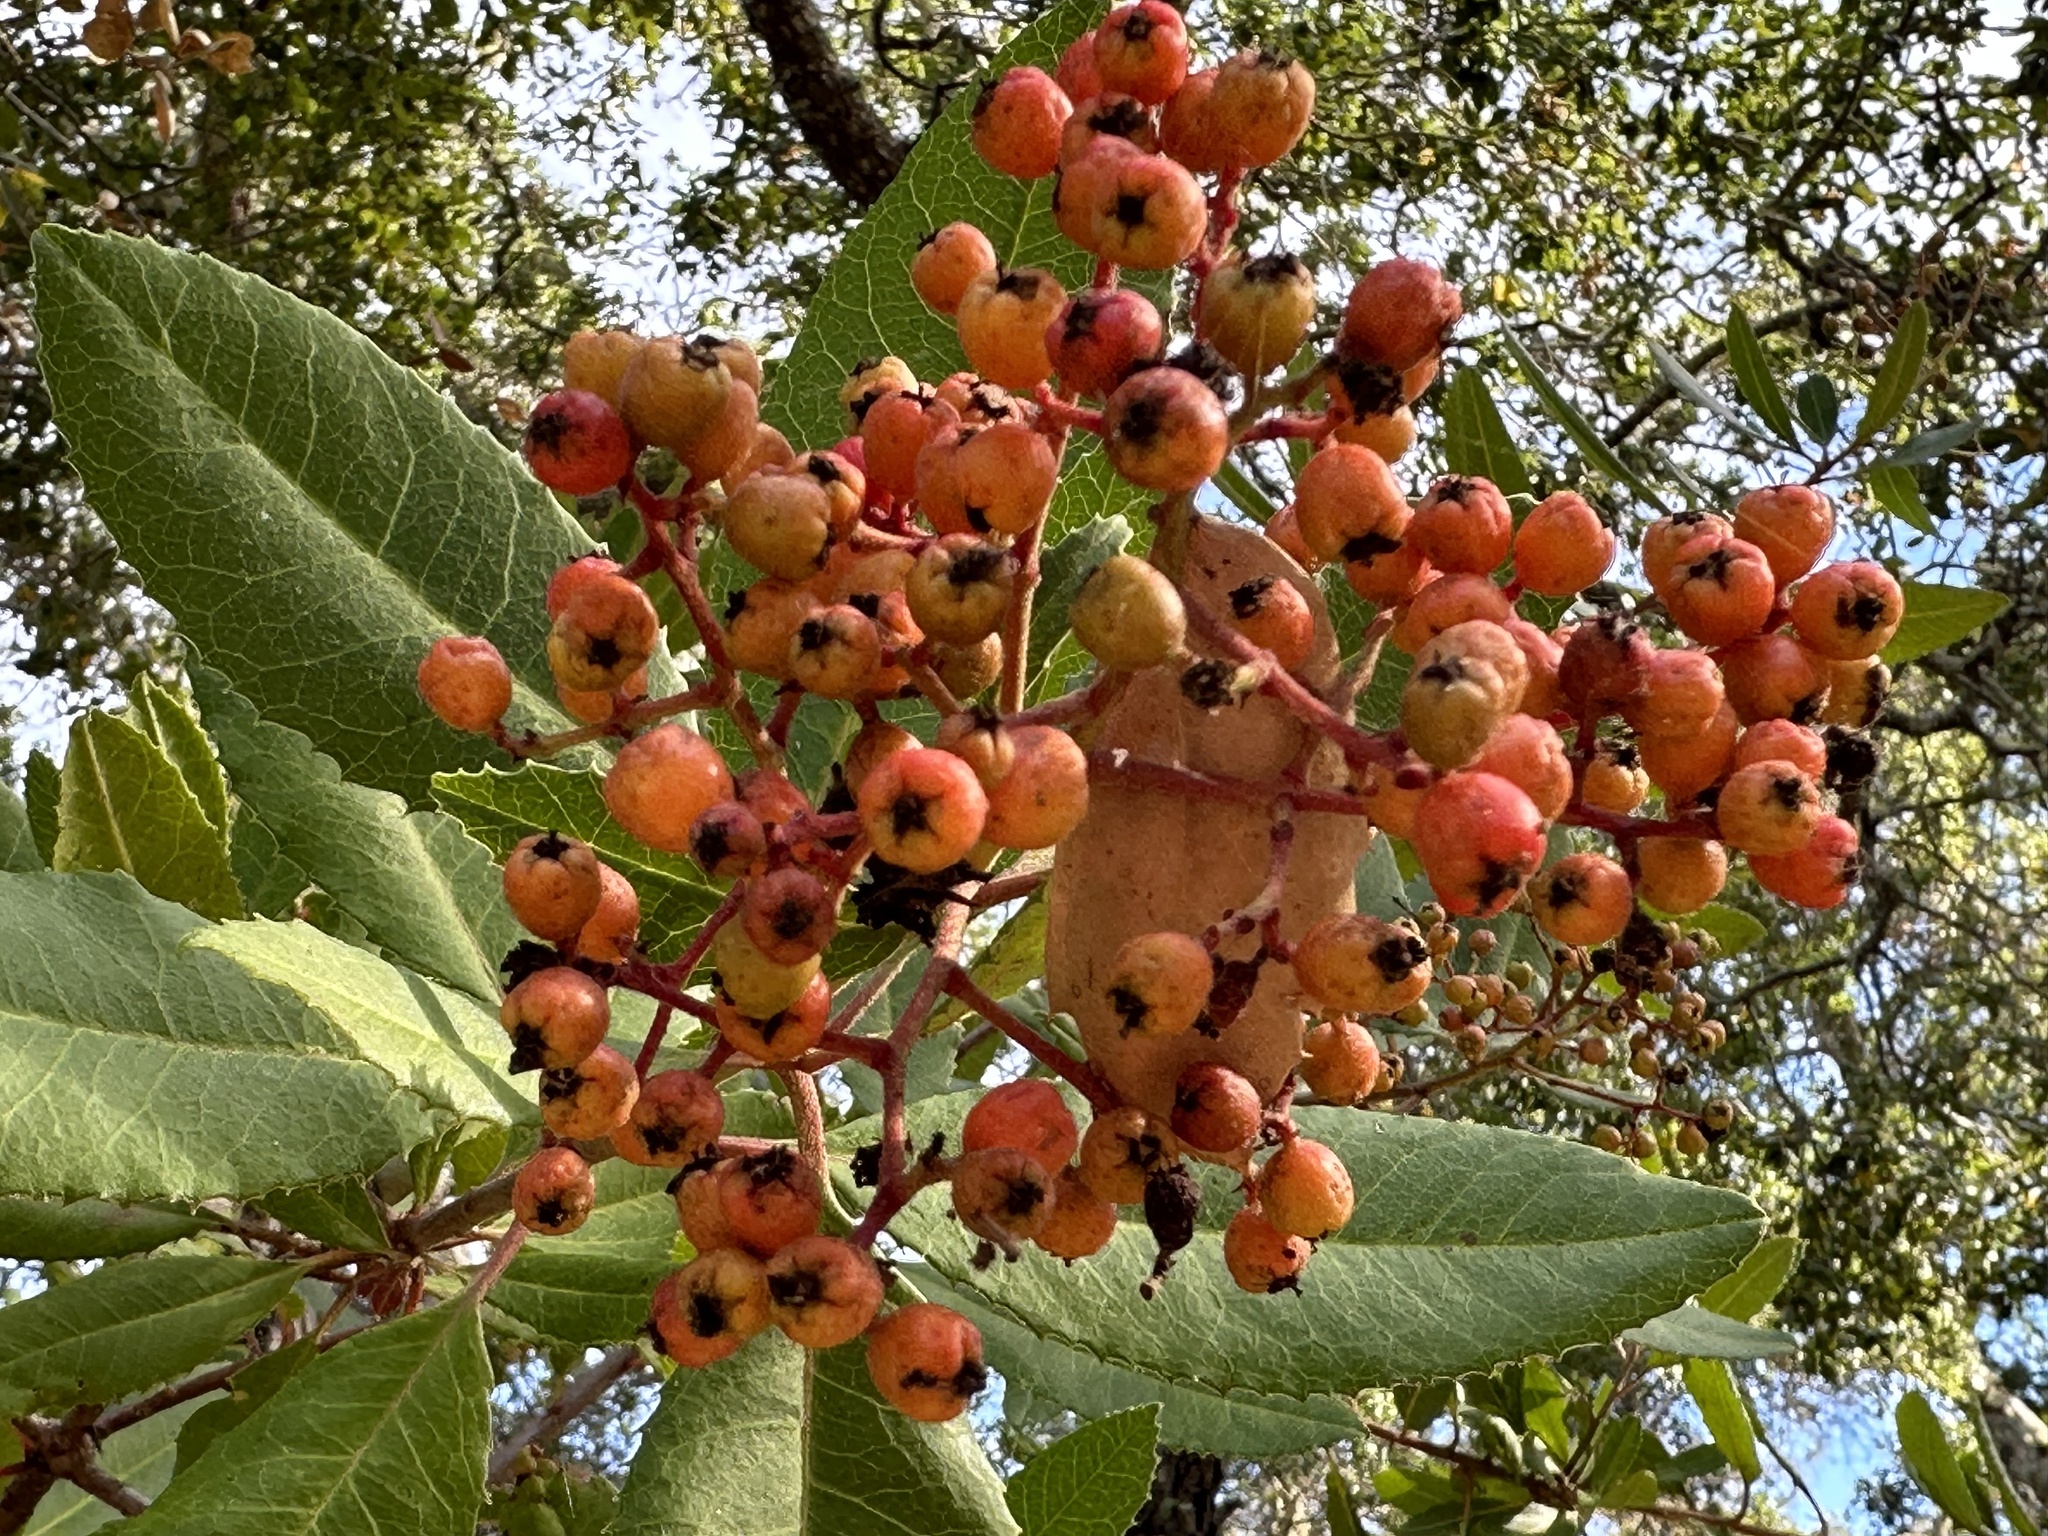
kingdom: Plantae
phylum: Tracheophyta
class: Magnoliopsida
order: Rosales
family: Rosaceae
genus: Heteromeles
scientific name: Heteromeles arbutifolia
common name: California-holly
